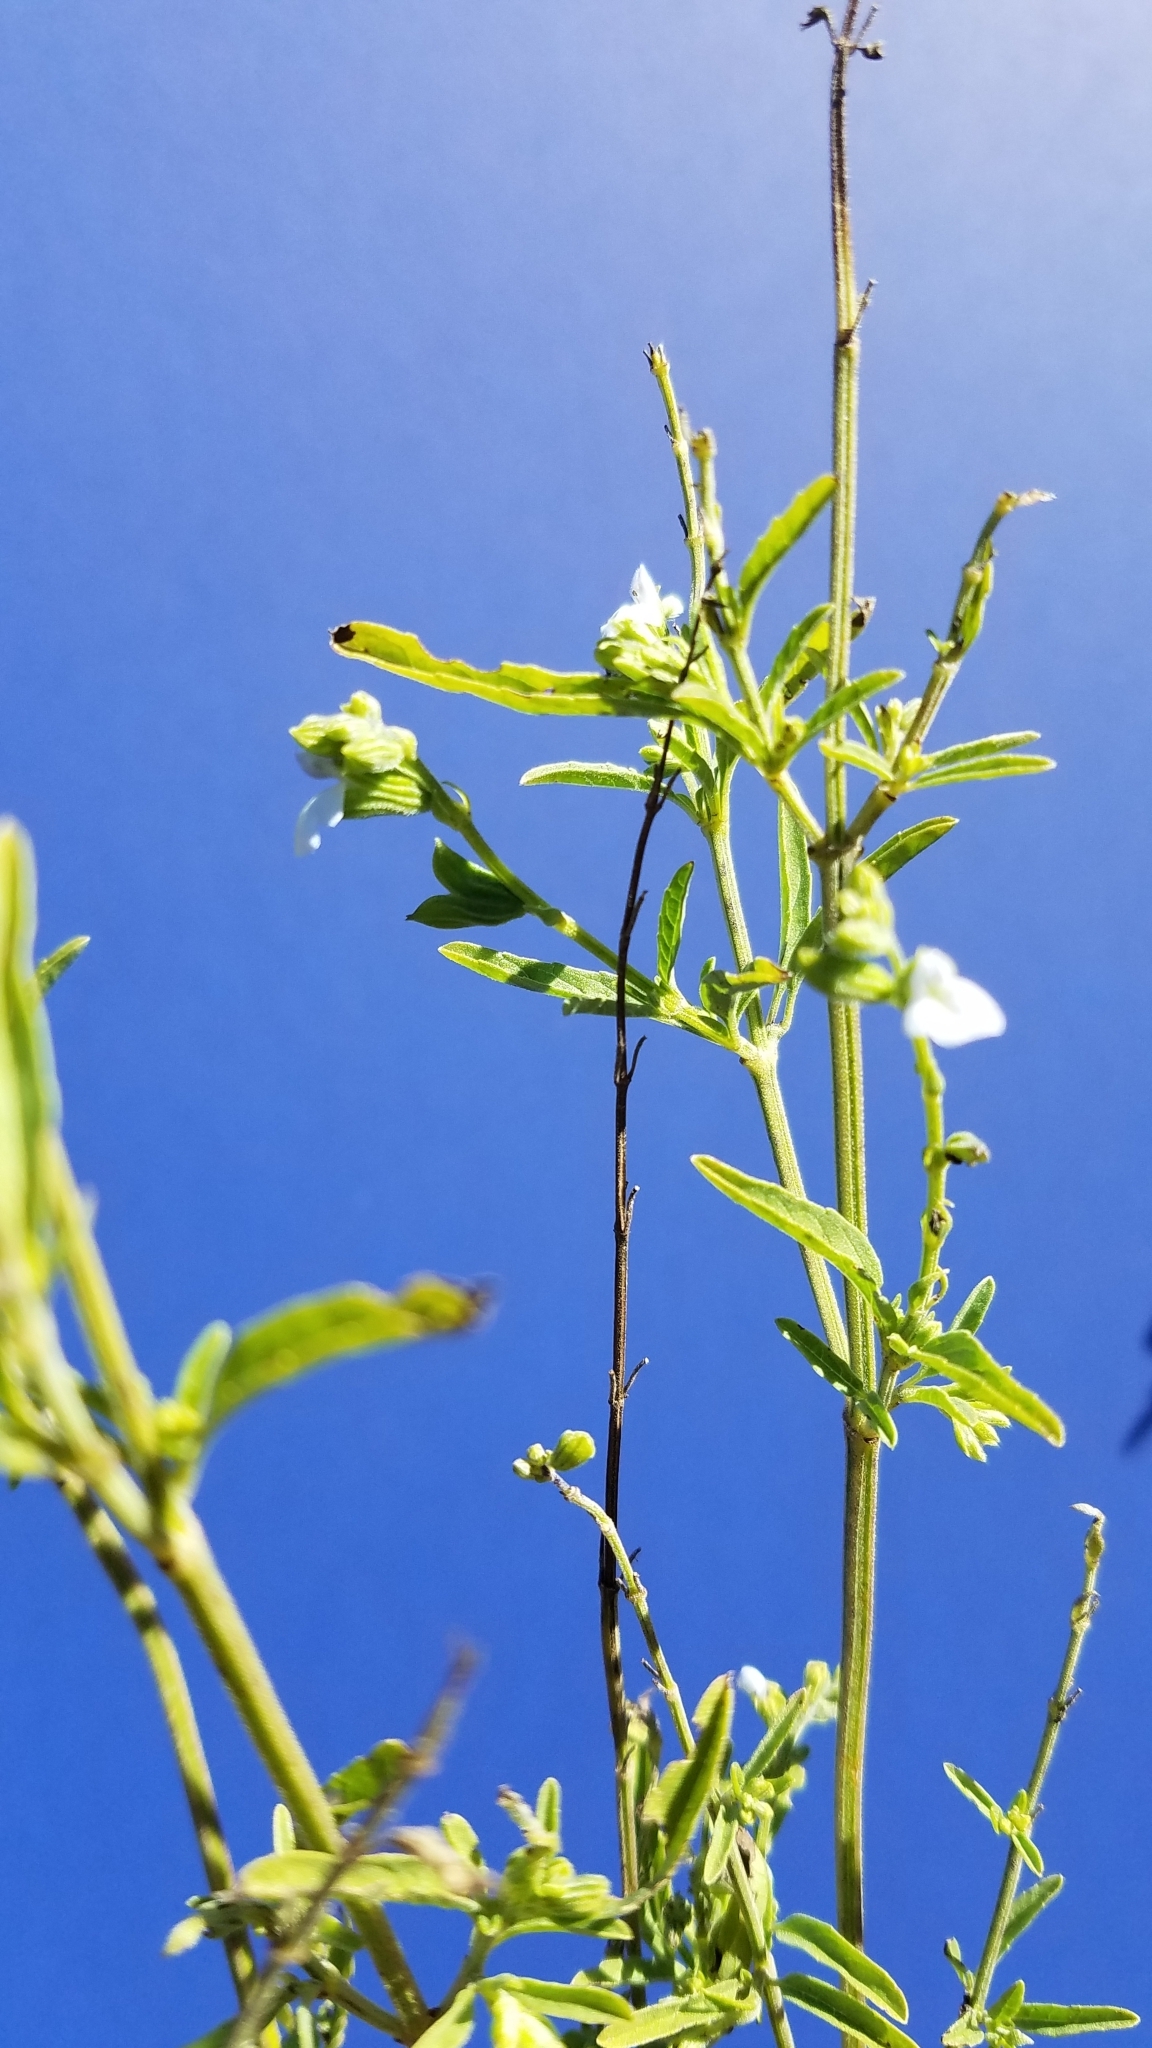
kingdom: Plantae
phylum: Tracheophyta
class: Magnoliopsida
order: Lamiales
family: Lamiaceae
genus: Salvia
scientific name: Salvia reflexa
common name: Mintweed
